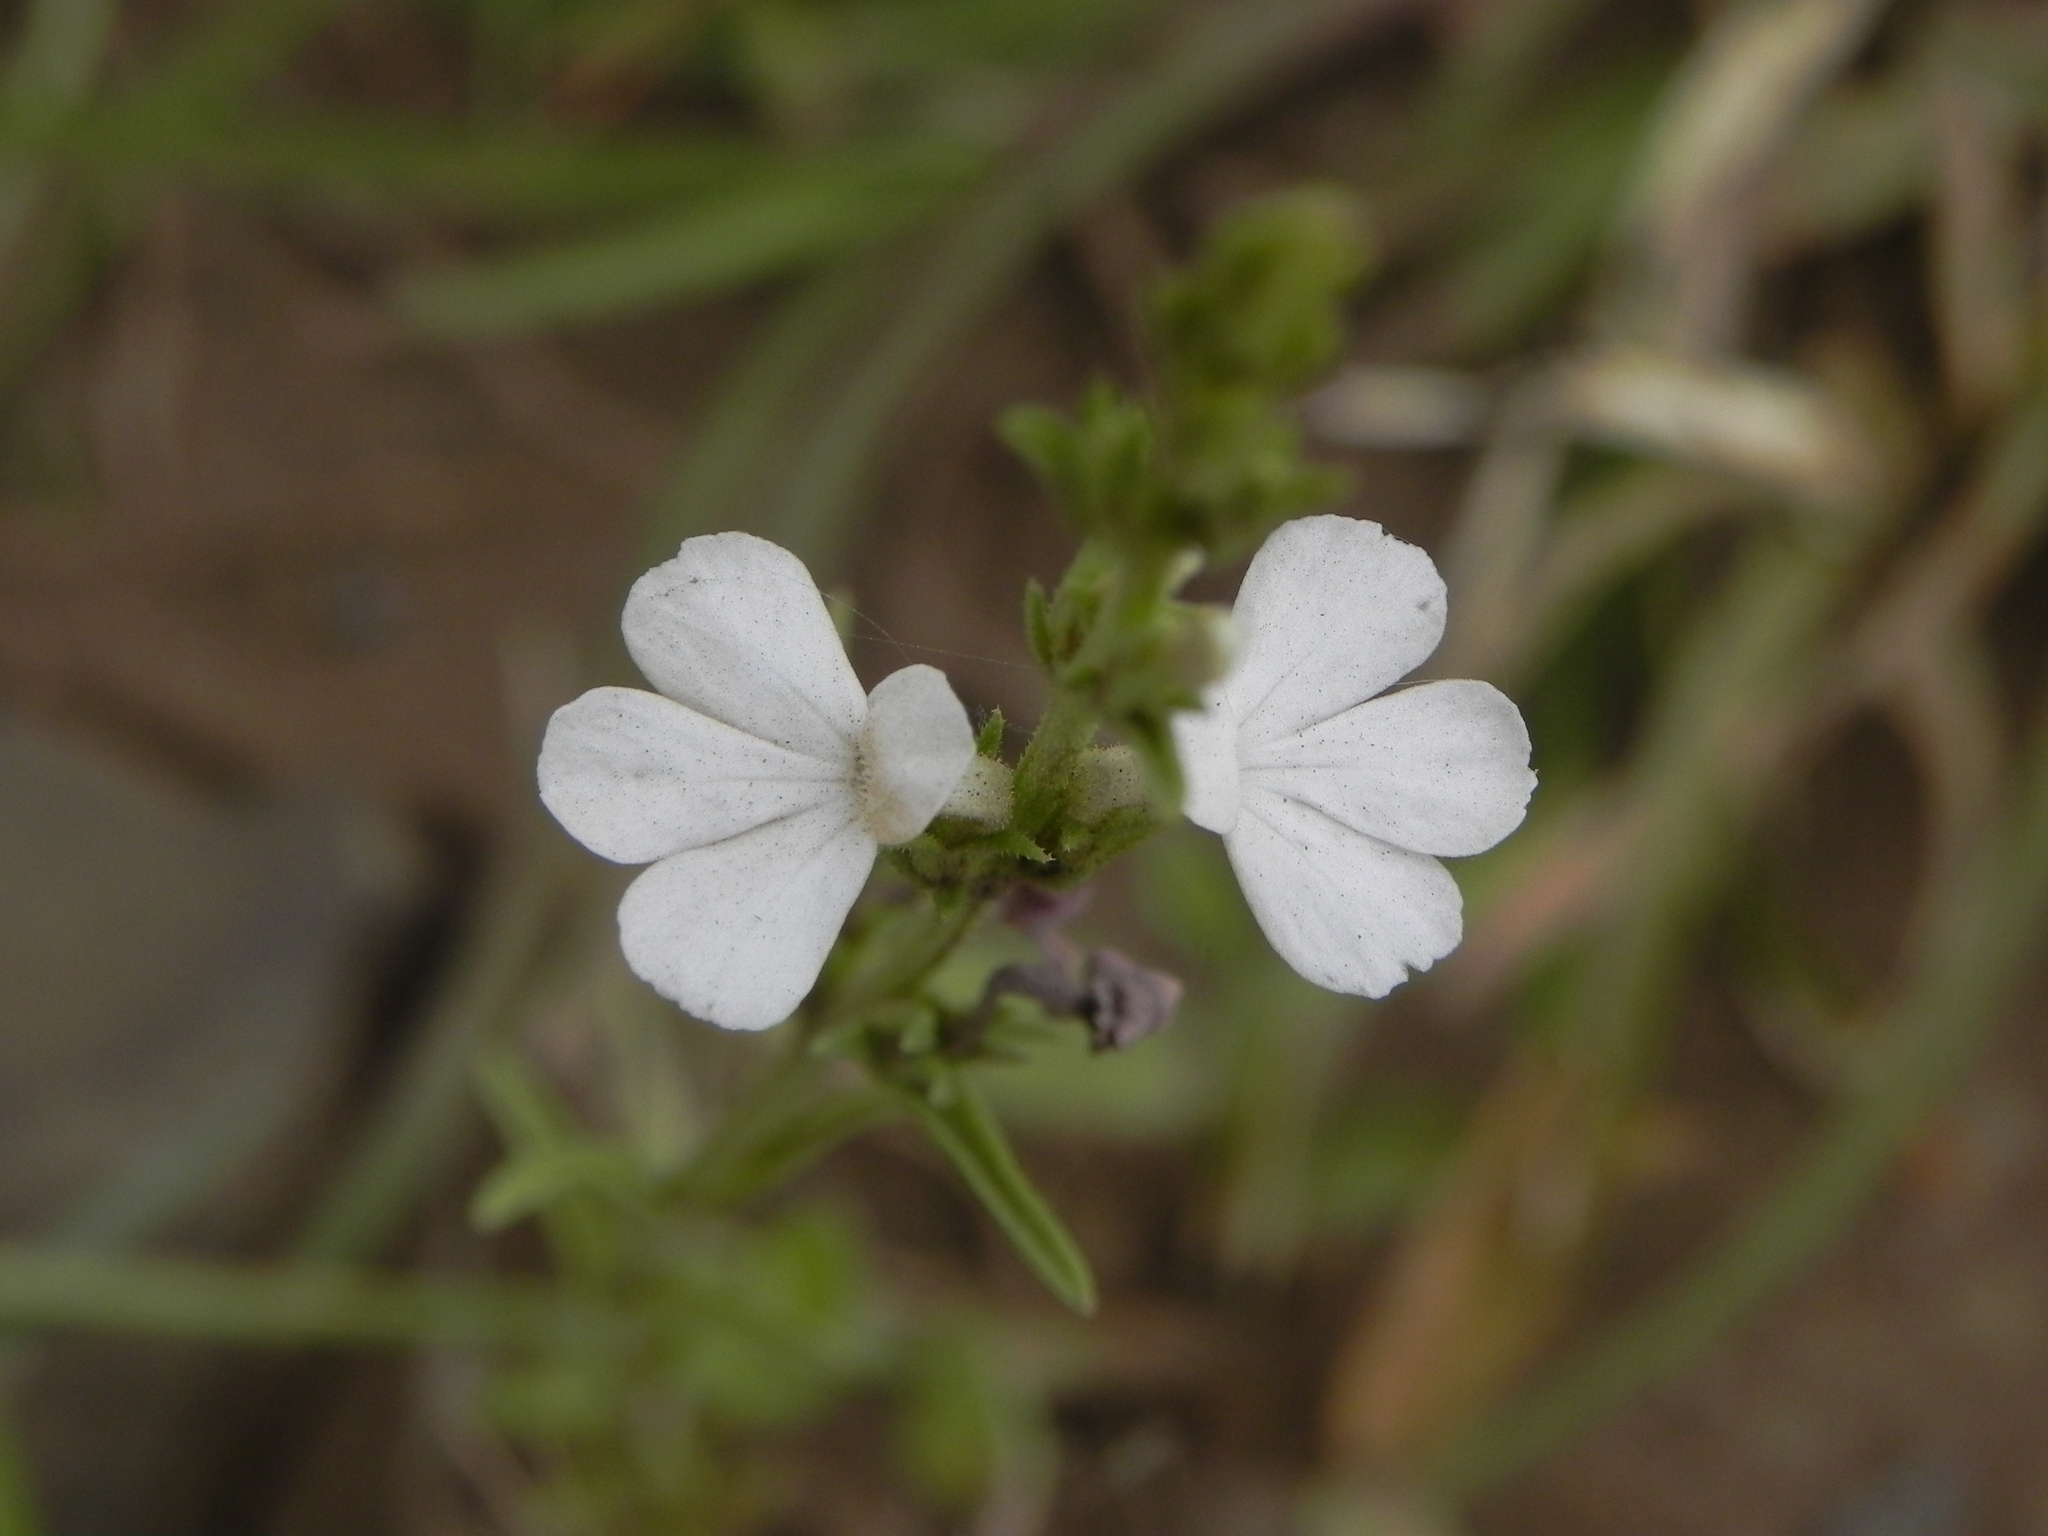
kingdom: Plantae
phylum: Tracheophyta
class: Magnoliopsida
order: Lamiales
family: Orobanchaceae
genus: Striga
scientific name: Striga densiflora
